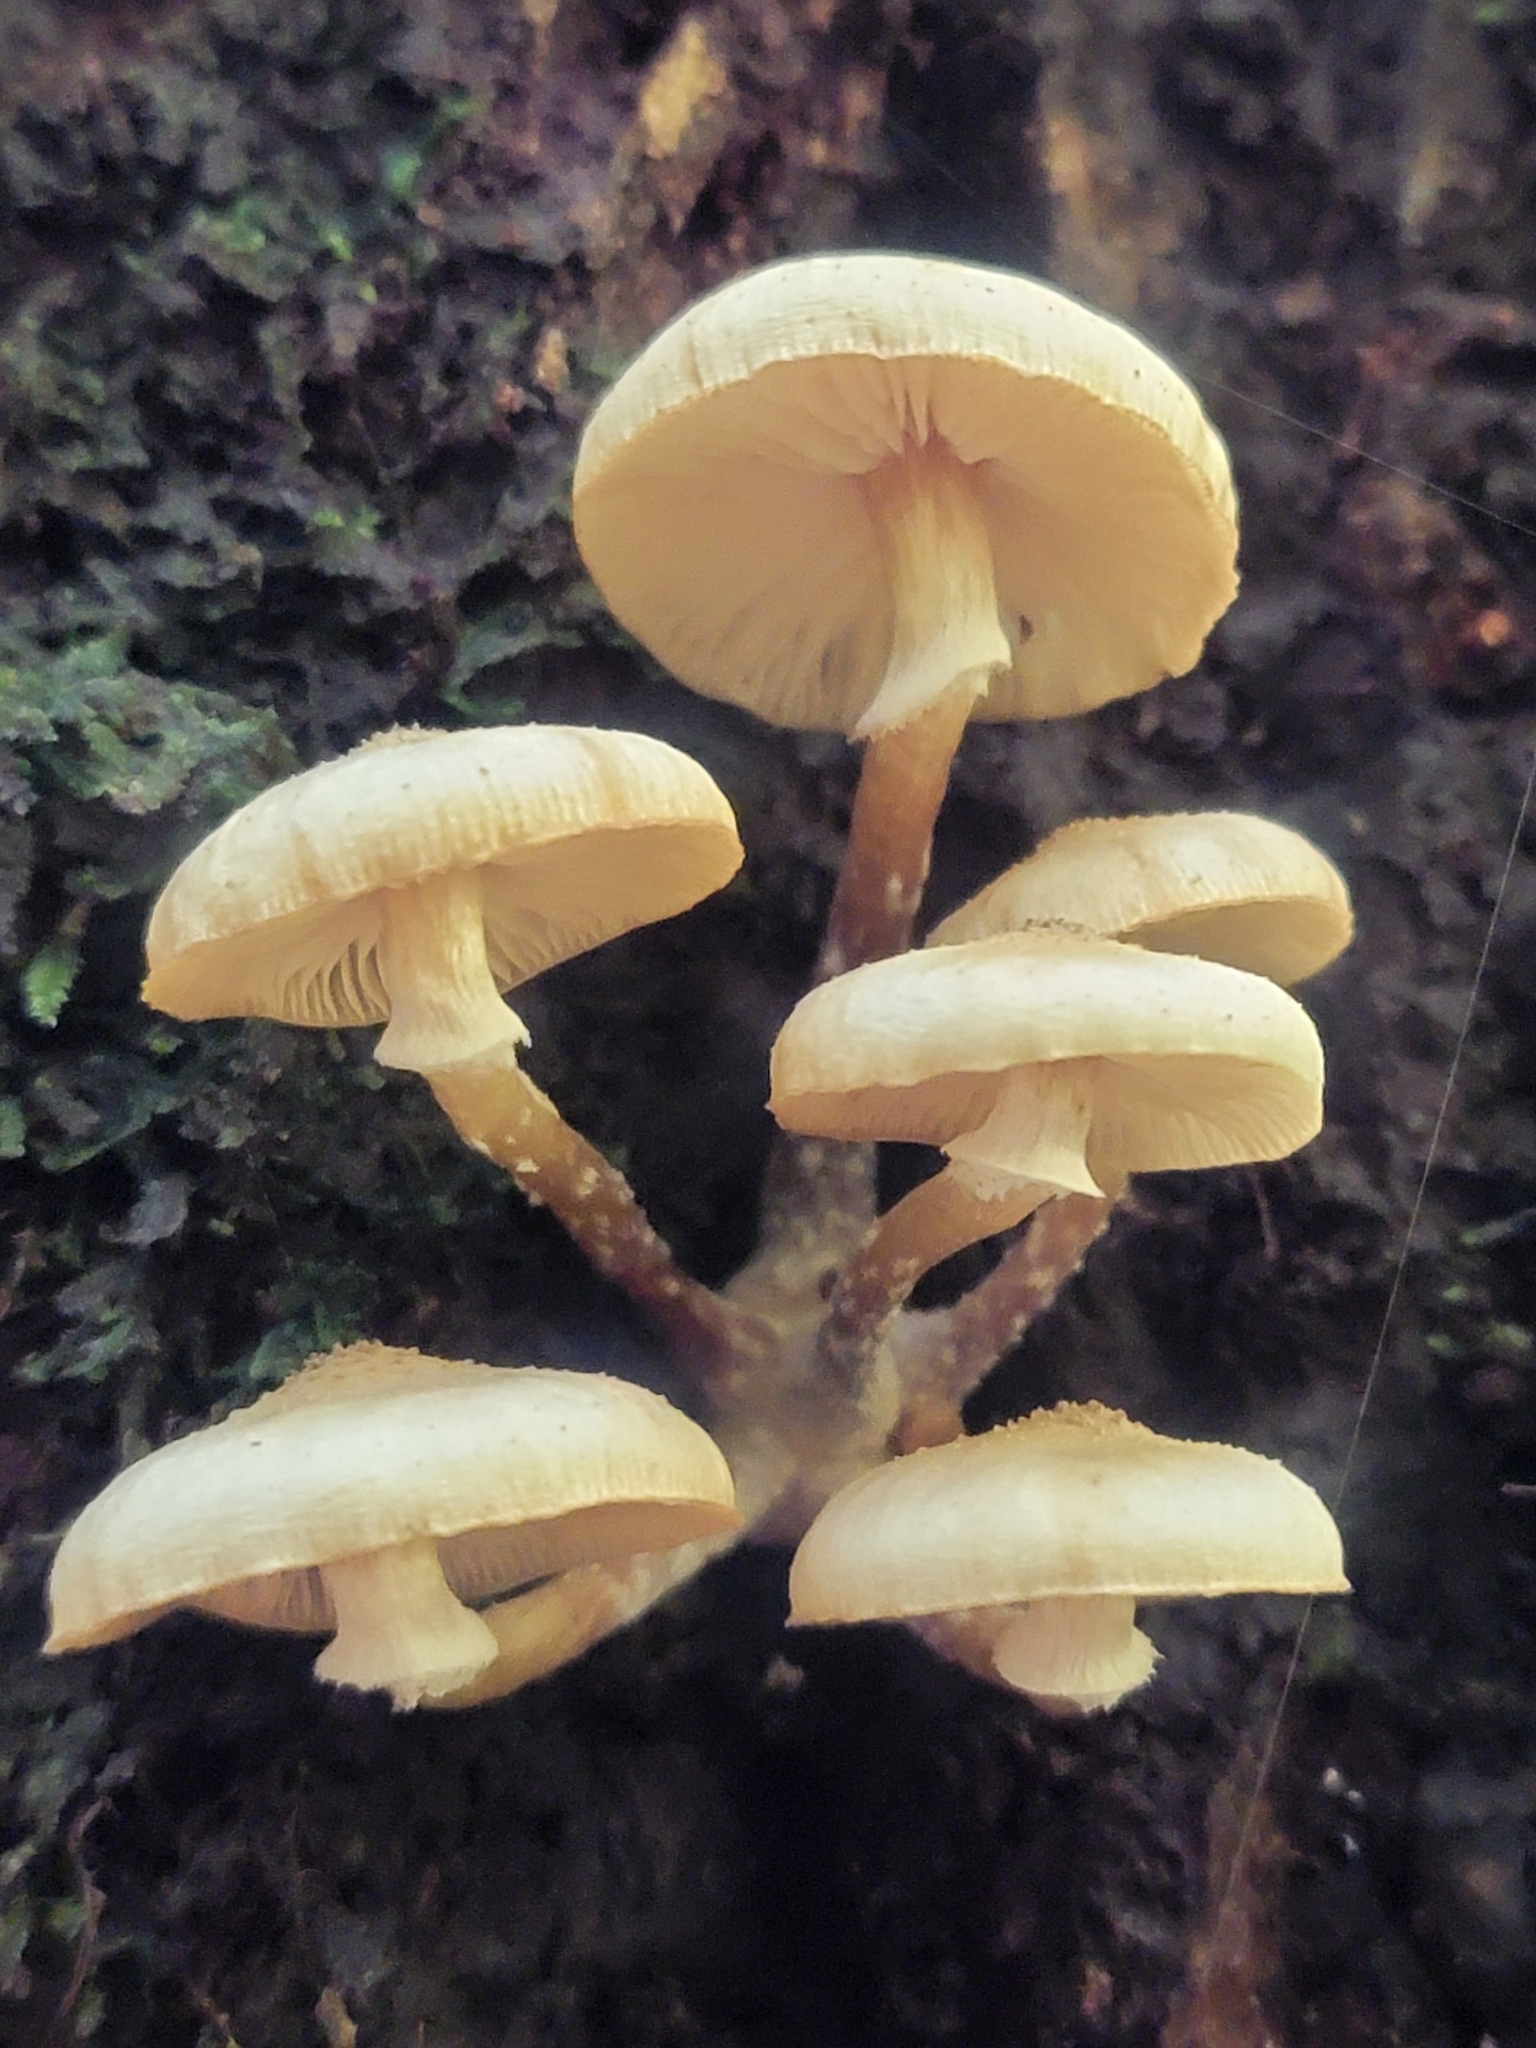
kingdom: Fungi
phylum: Basidiomycota
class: Agaricomycetes
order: Agaricales
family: Physalacriaceae
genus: Armillaria
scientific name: Armillaria limonea
